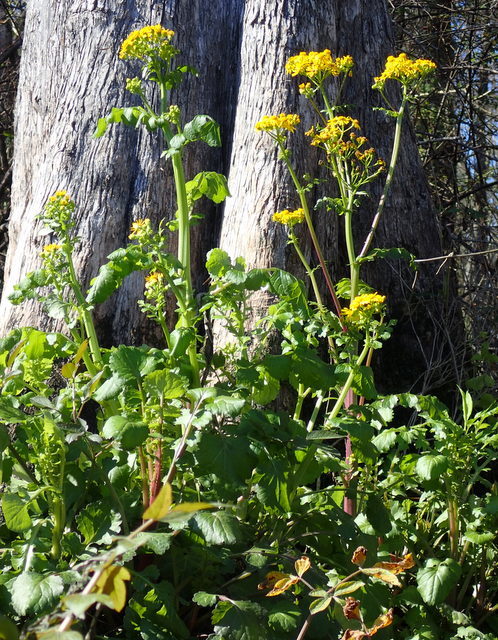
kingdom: Plantae
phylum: Tracheophyta
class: Magnoliopsida
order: Asterales
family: Asteraceae
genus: Packera
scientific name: Packera glabella
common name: Butterweed
